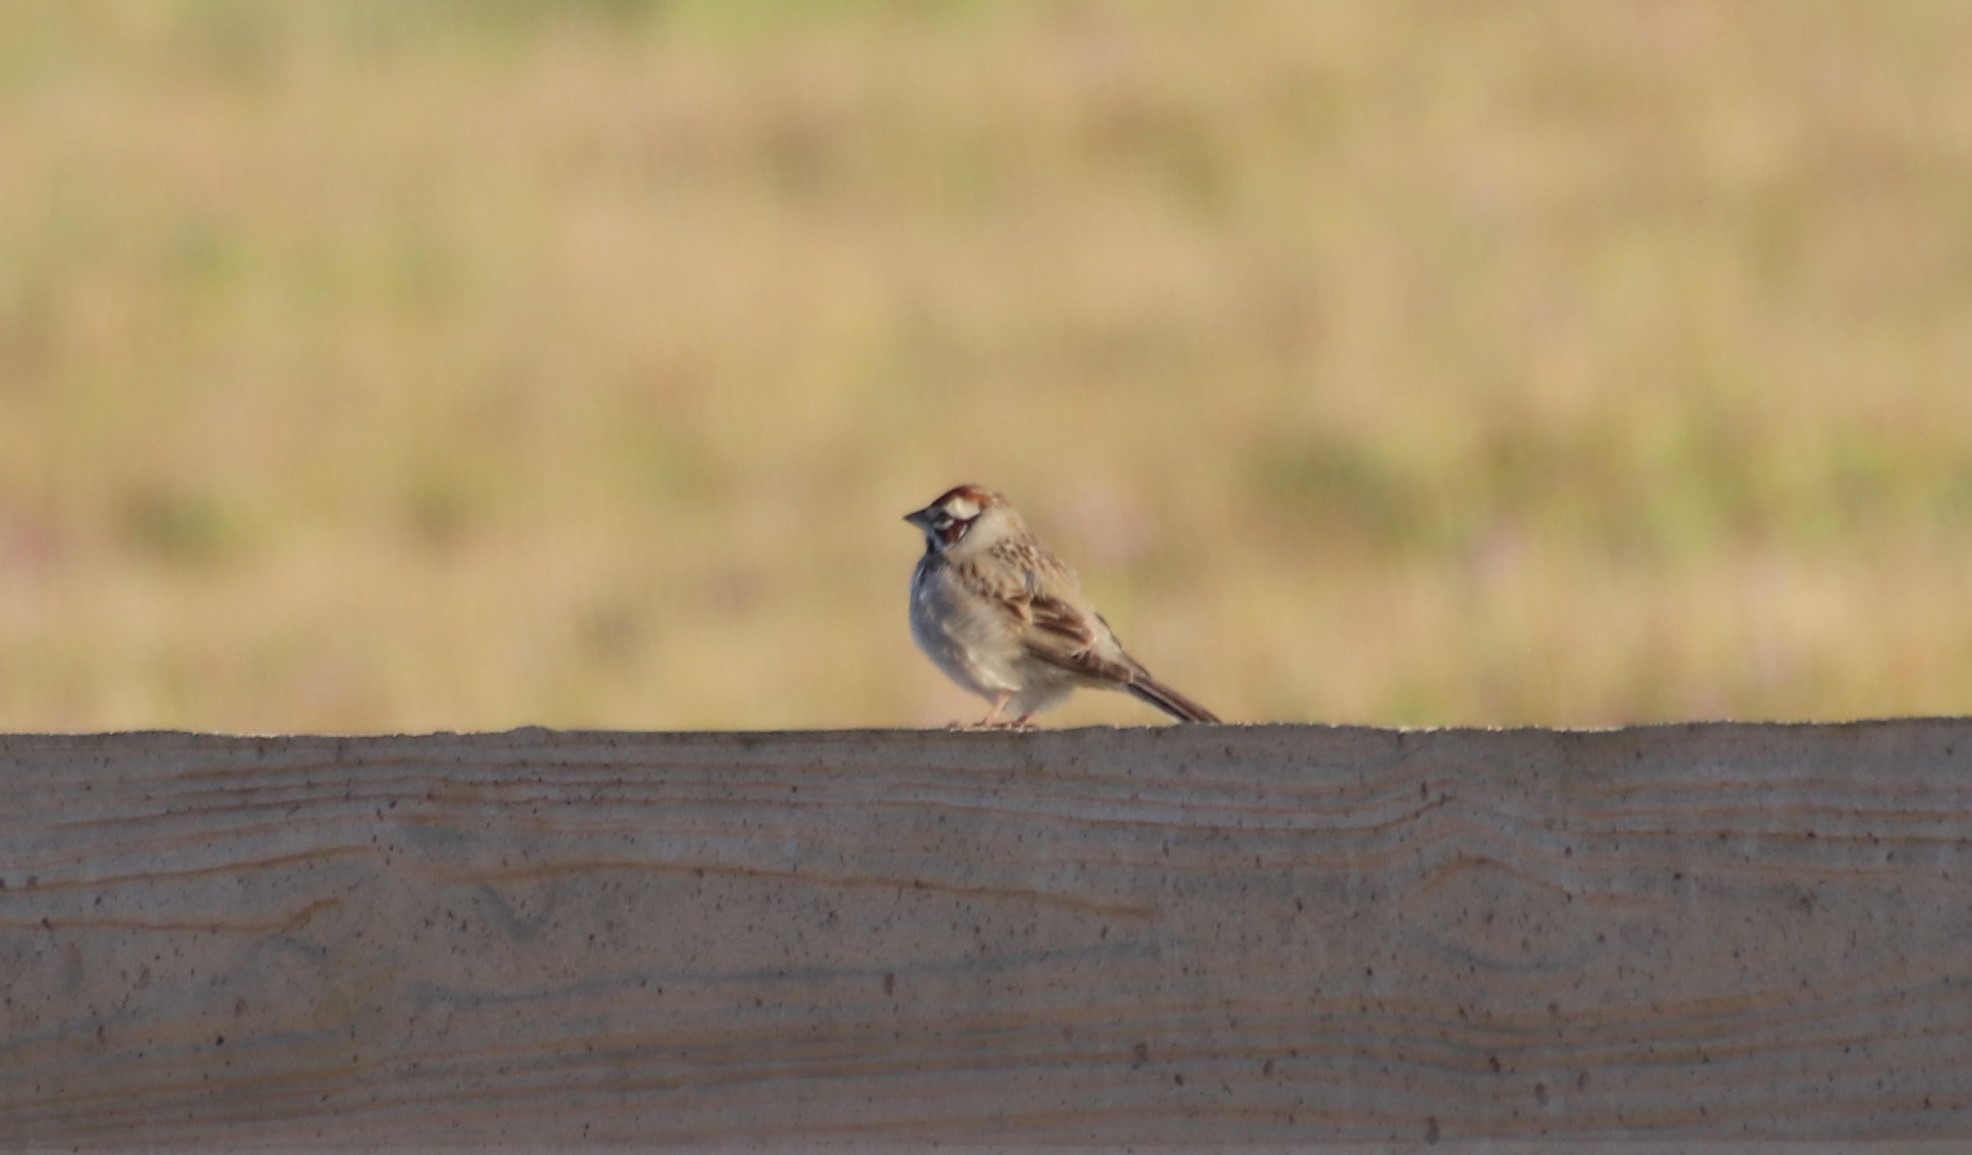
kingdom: Animalia
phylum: Chordata
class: Aves
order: Passeriformes
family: Passerellidae
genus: Chondestes
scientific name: Chondestes grammacus
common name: Lark sparrow
